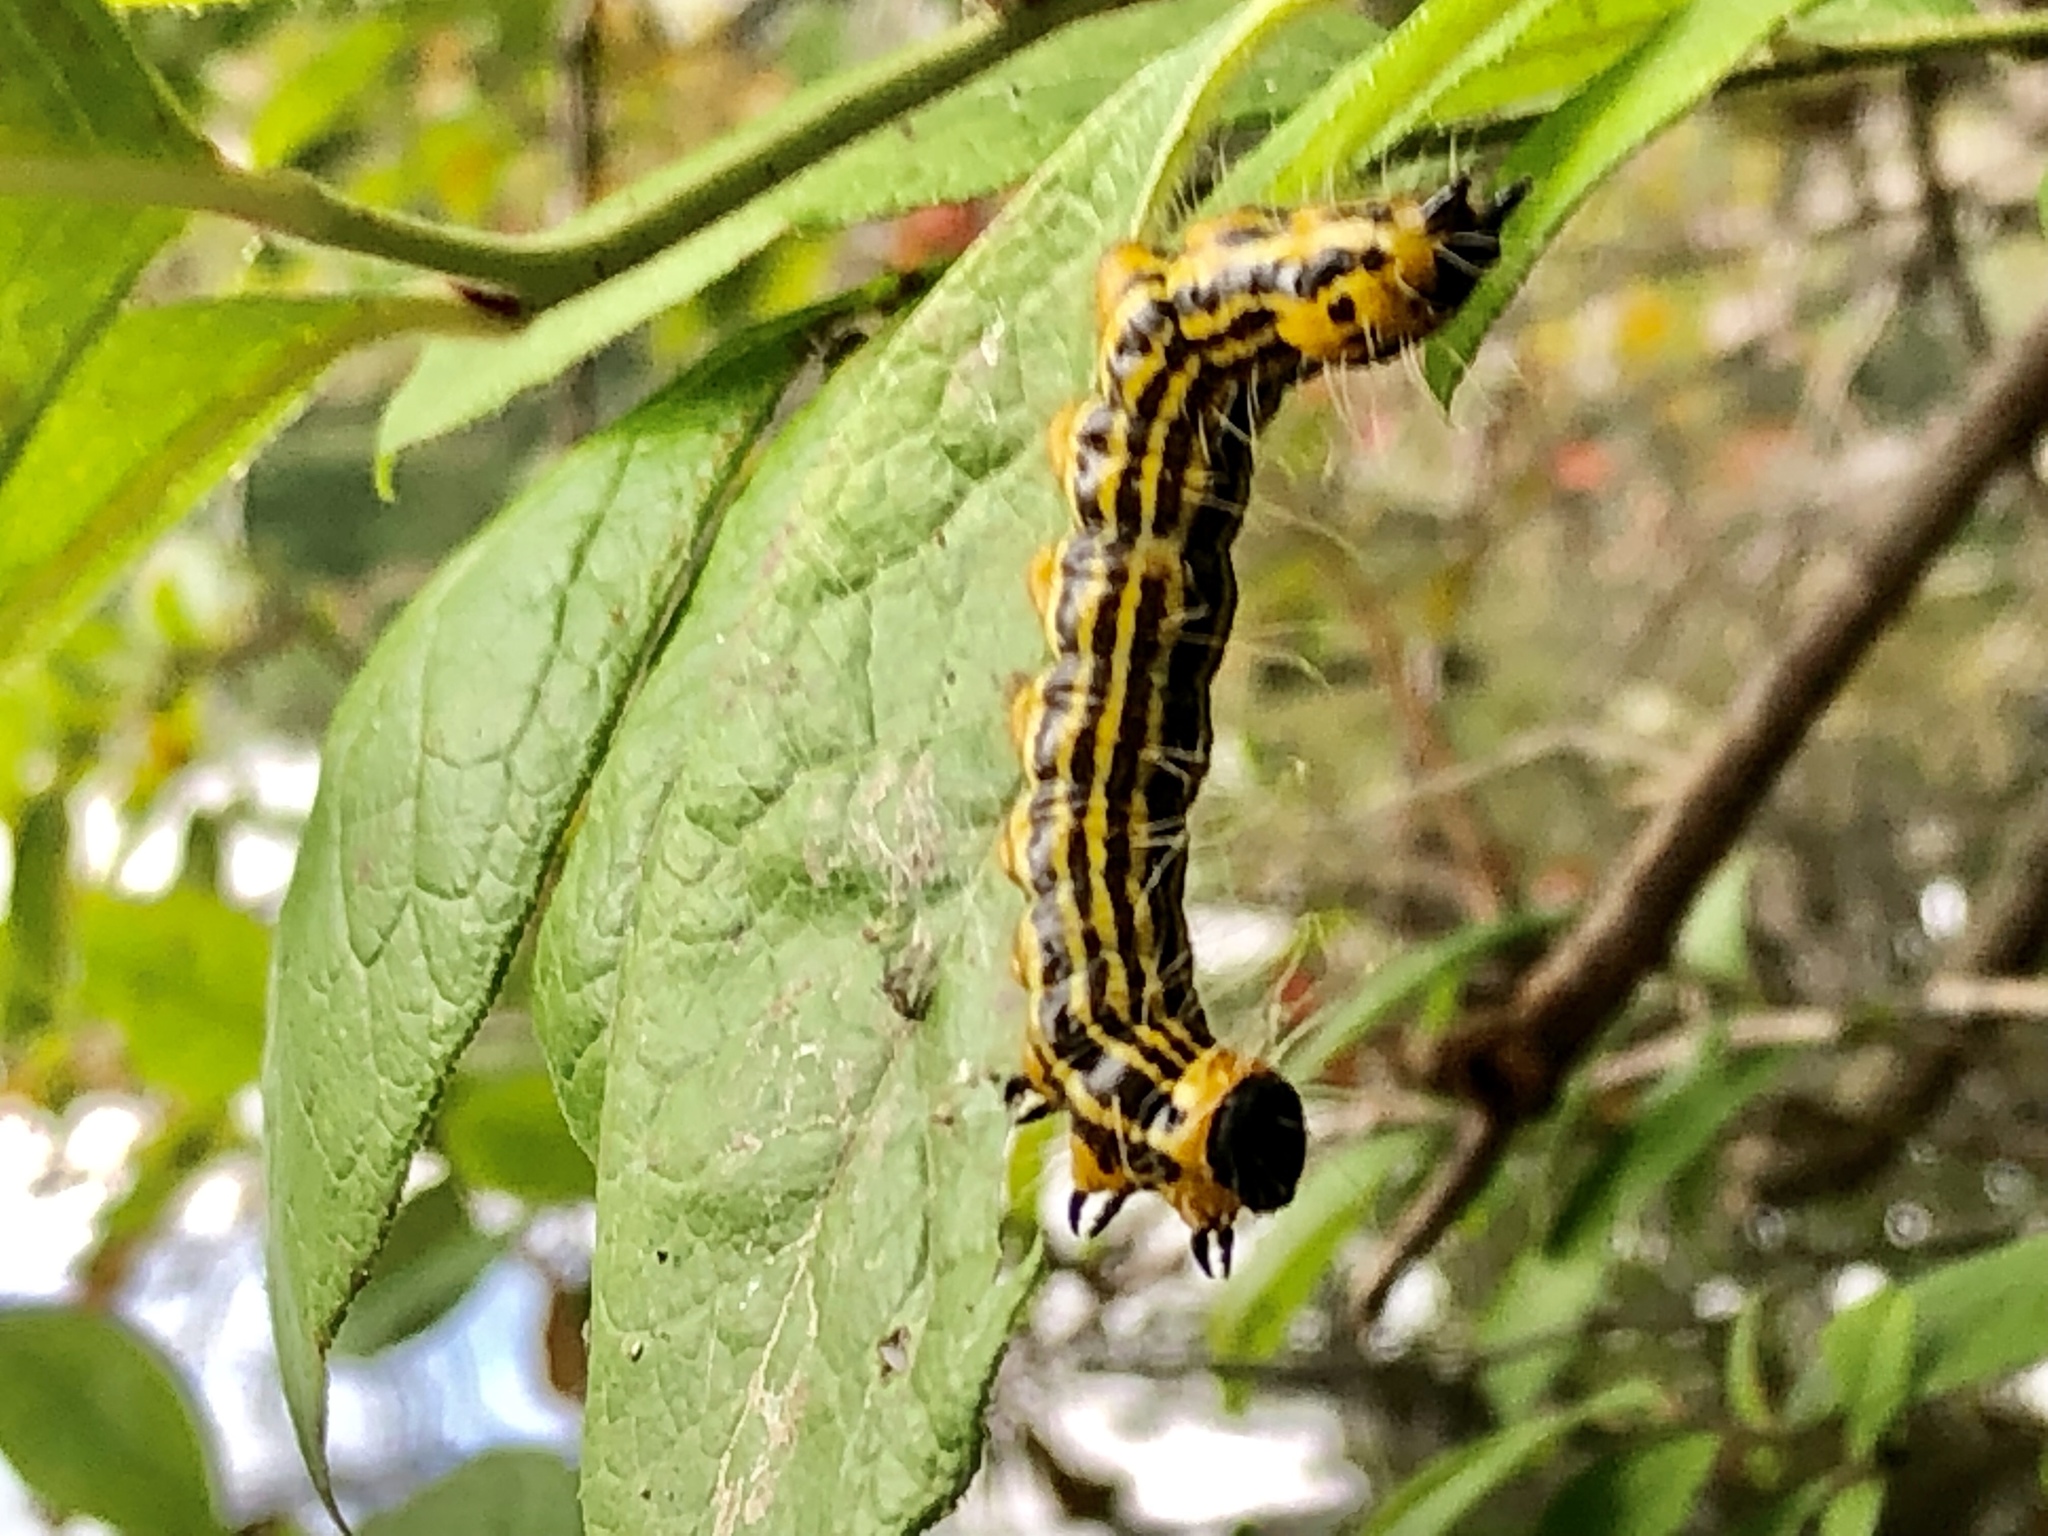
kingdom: Animalia
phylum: Arthropoda
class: Insecta
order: Lepidoptera
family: Notodontidae
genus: Datana
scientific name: Datana drexelii
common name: Drexel's datana
